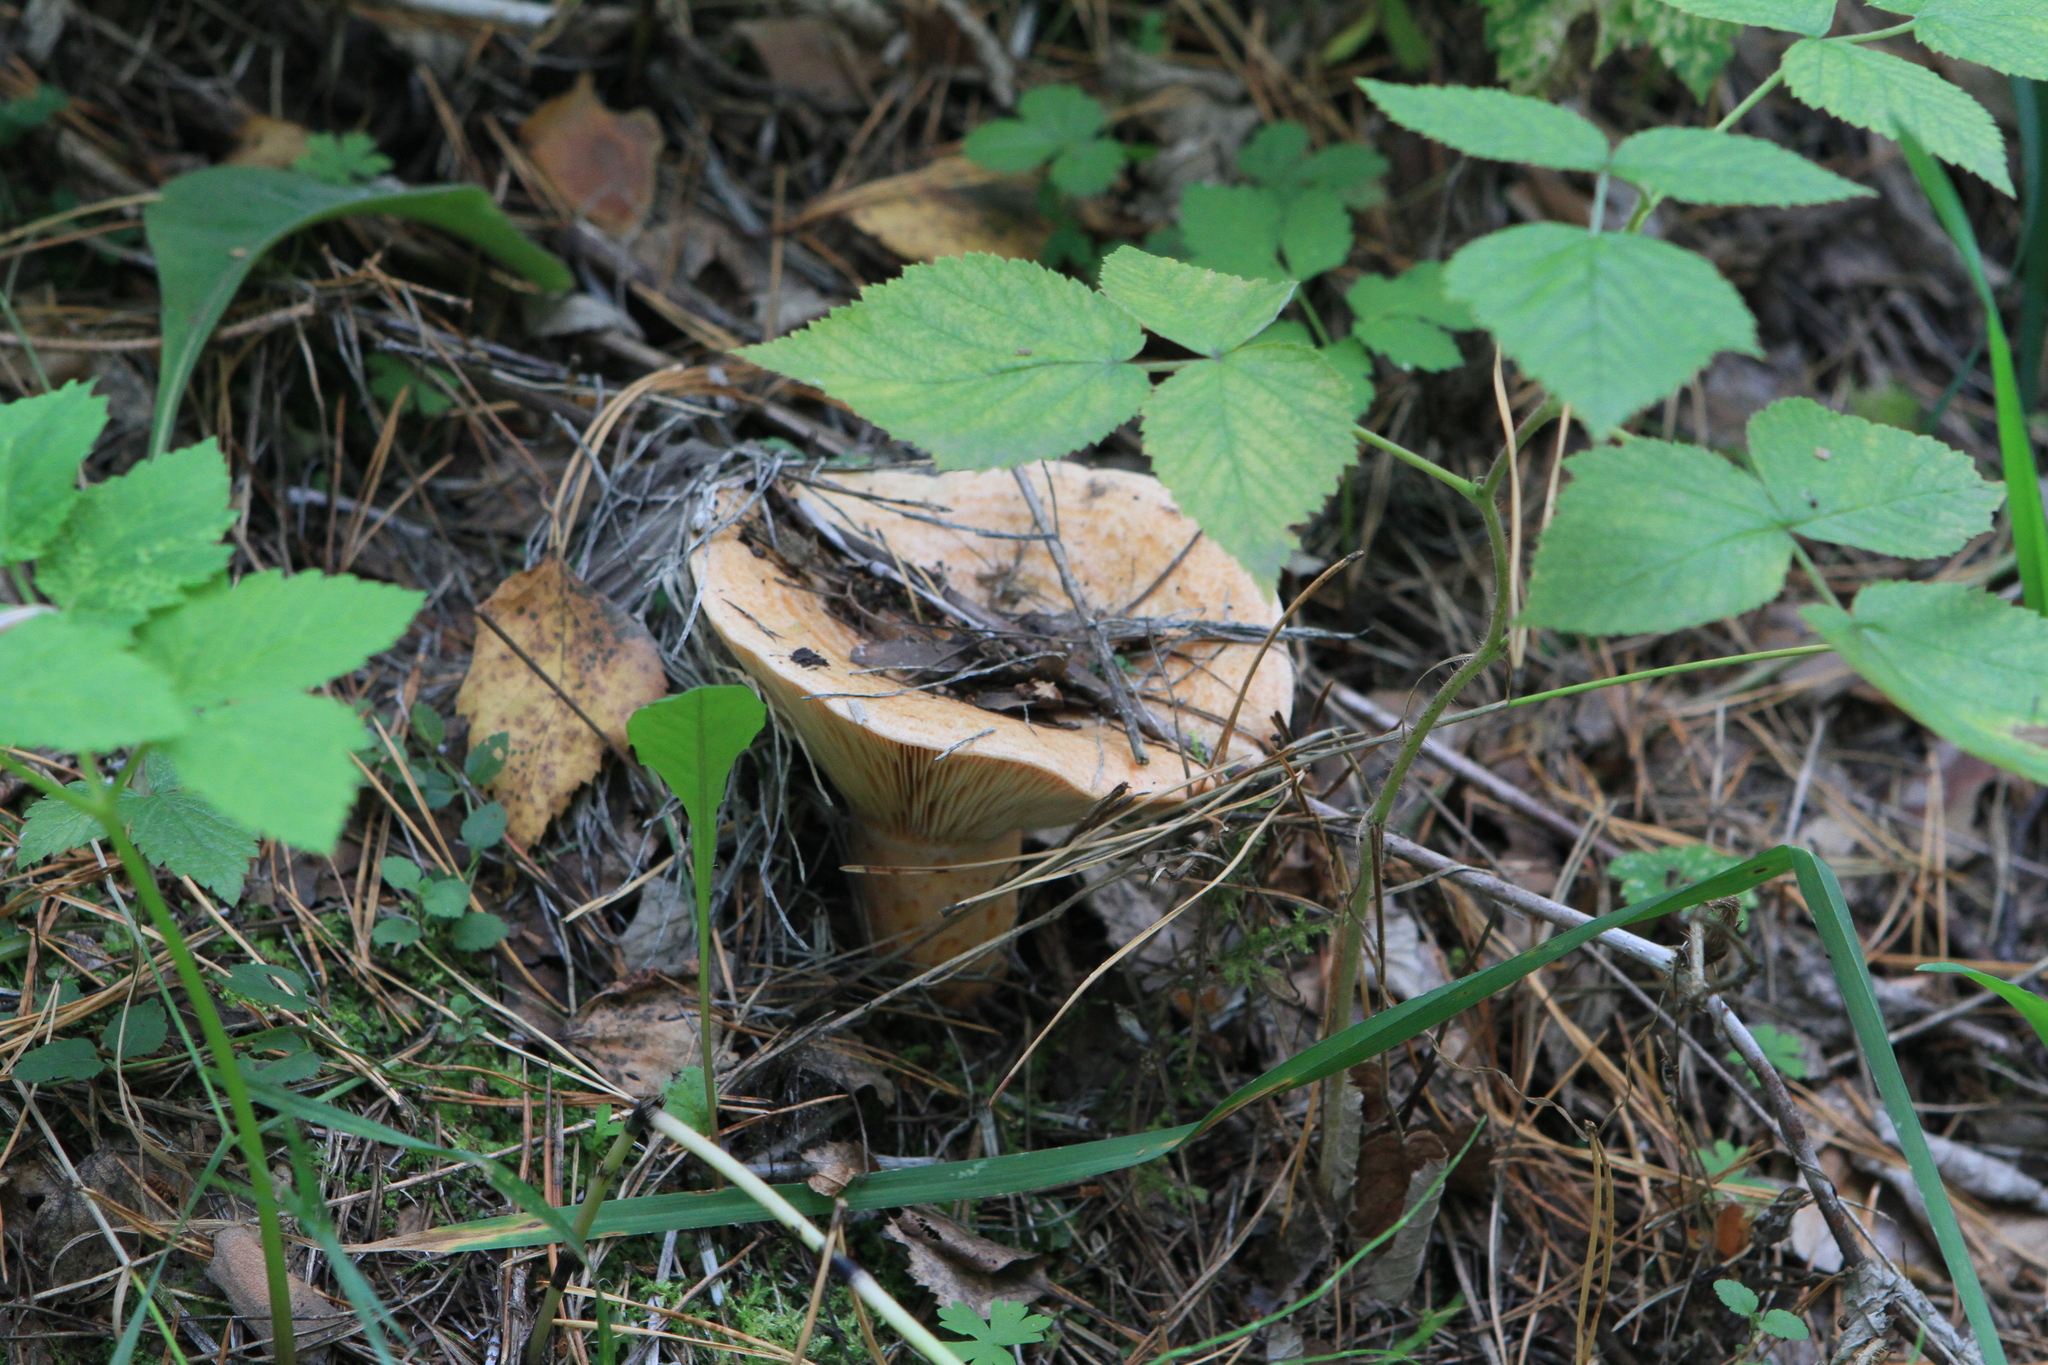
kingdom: Fungi
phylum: Basidiomycota
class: Agaricomycetes
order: Russulales
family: Russulaceae
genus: Lactarius
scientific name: Lactarius deliciosus
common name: Saffron milk-cap
